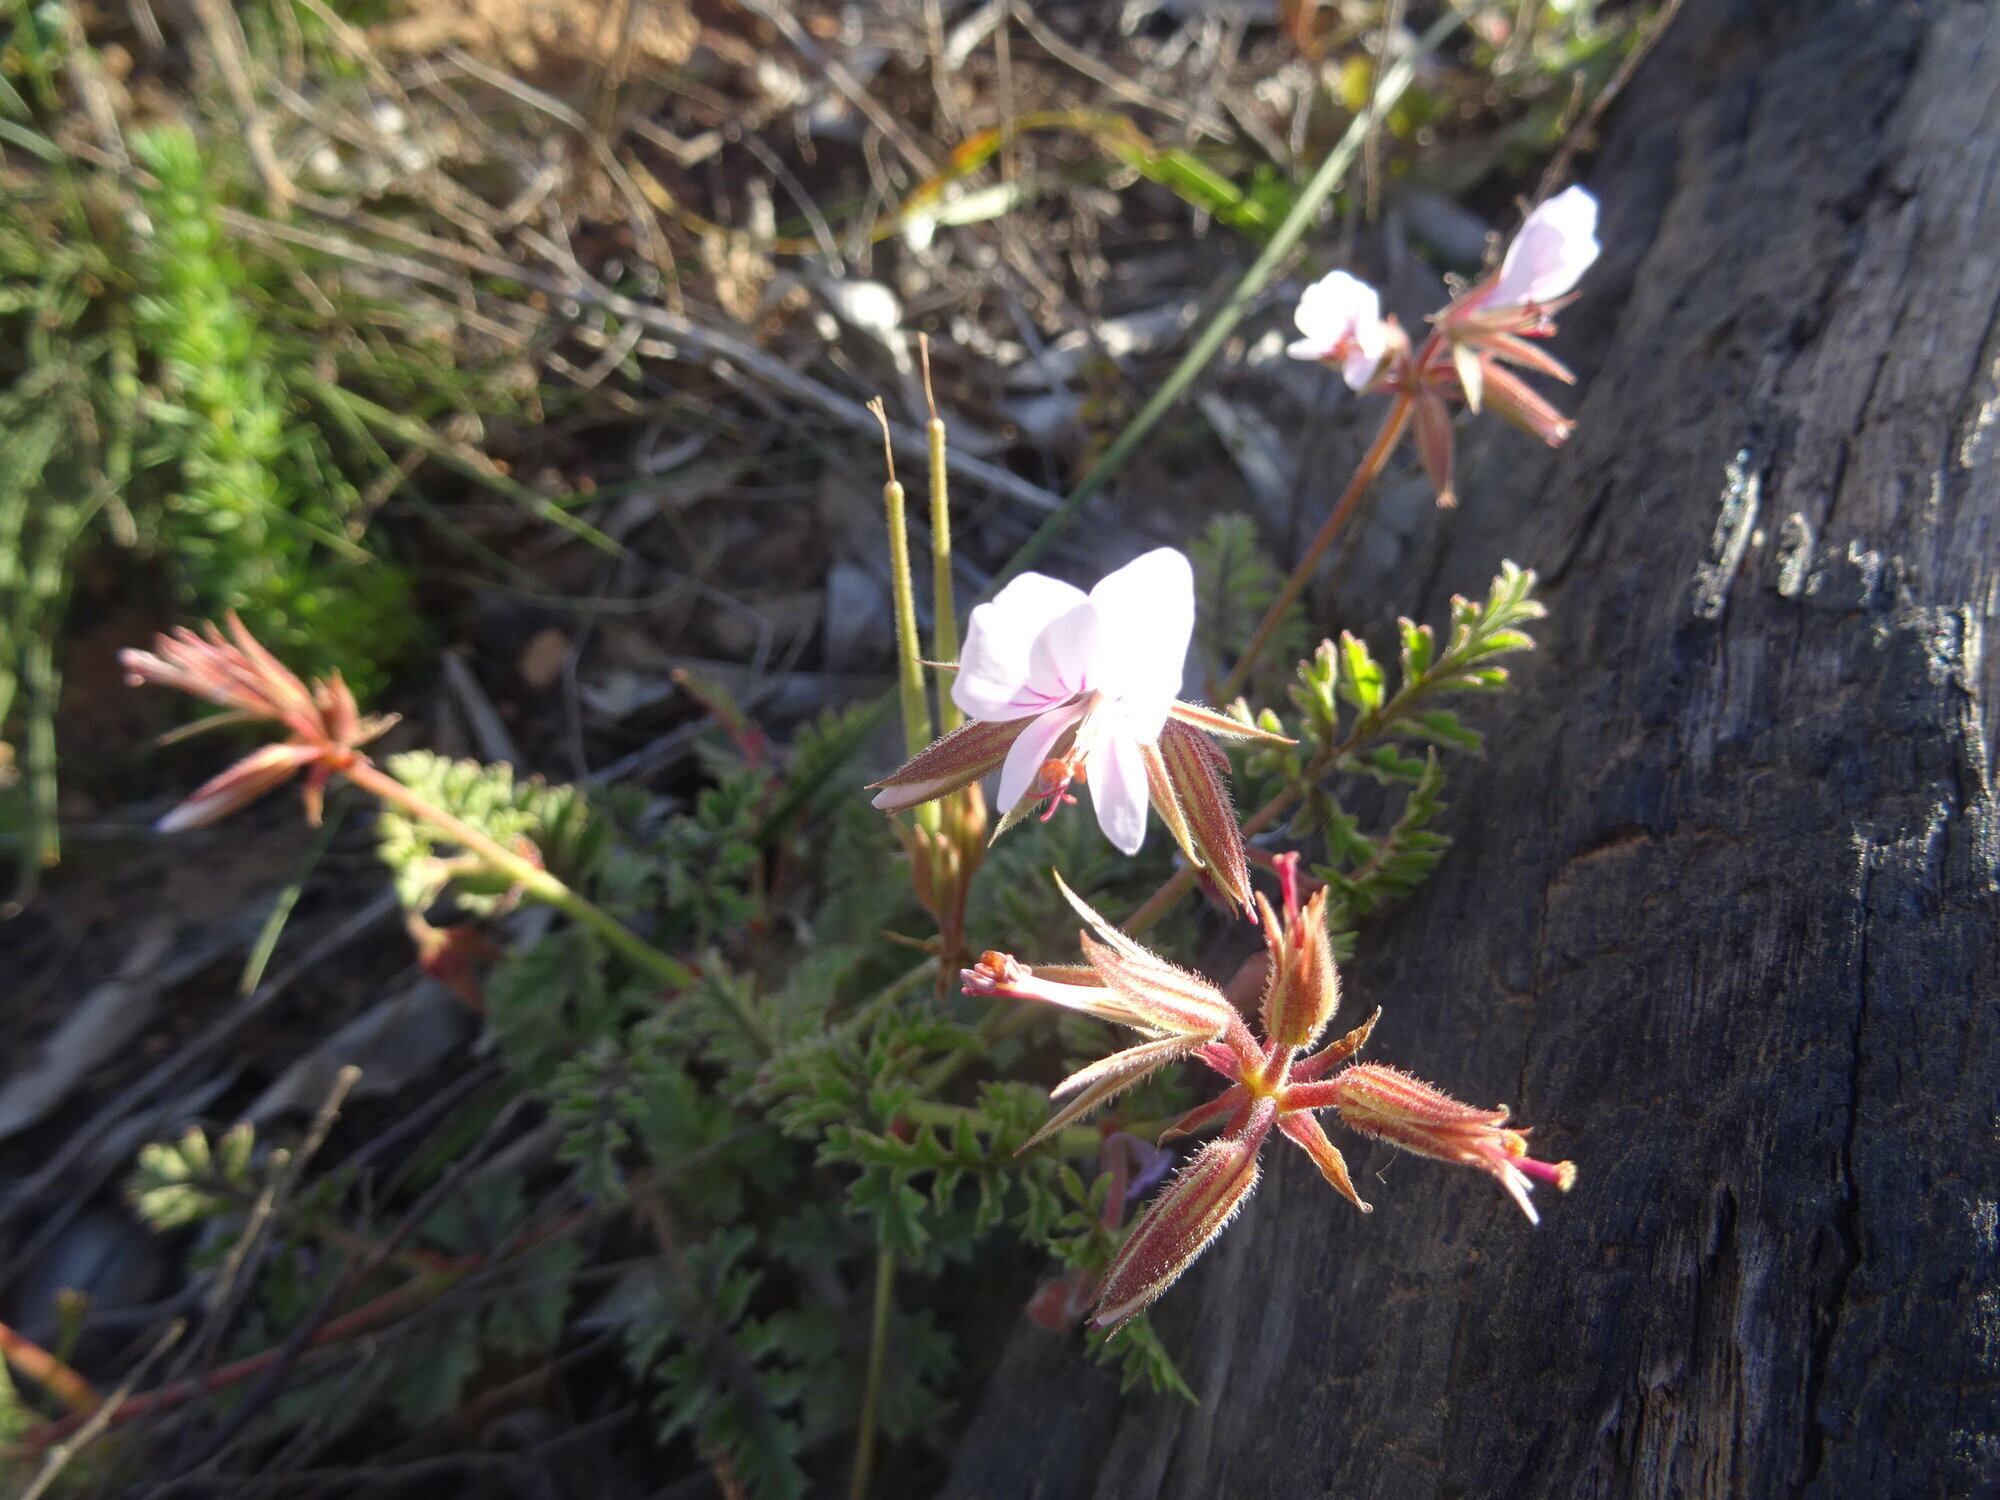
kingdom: Plantae
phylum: Tracheophyta
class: Magnoliopsida
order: Geraniales
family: Geraniaceae
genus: Pelargonium
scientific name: Pelargonium myrrhifolium
